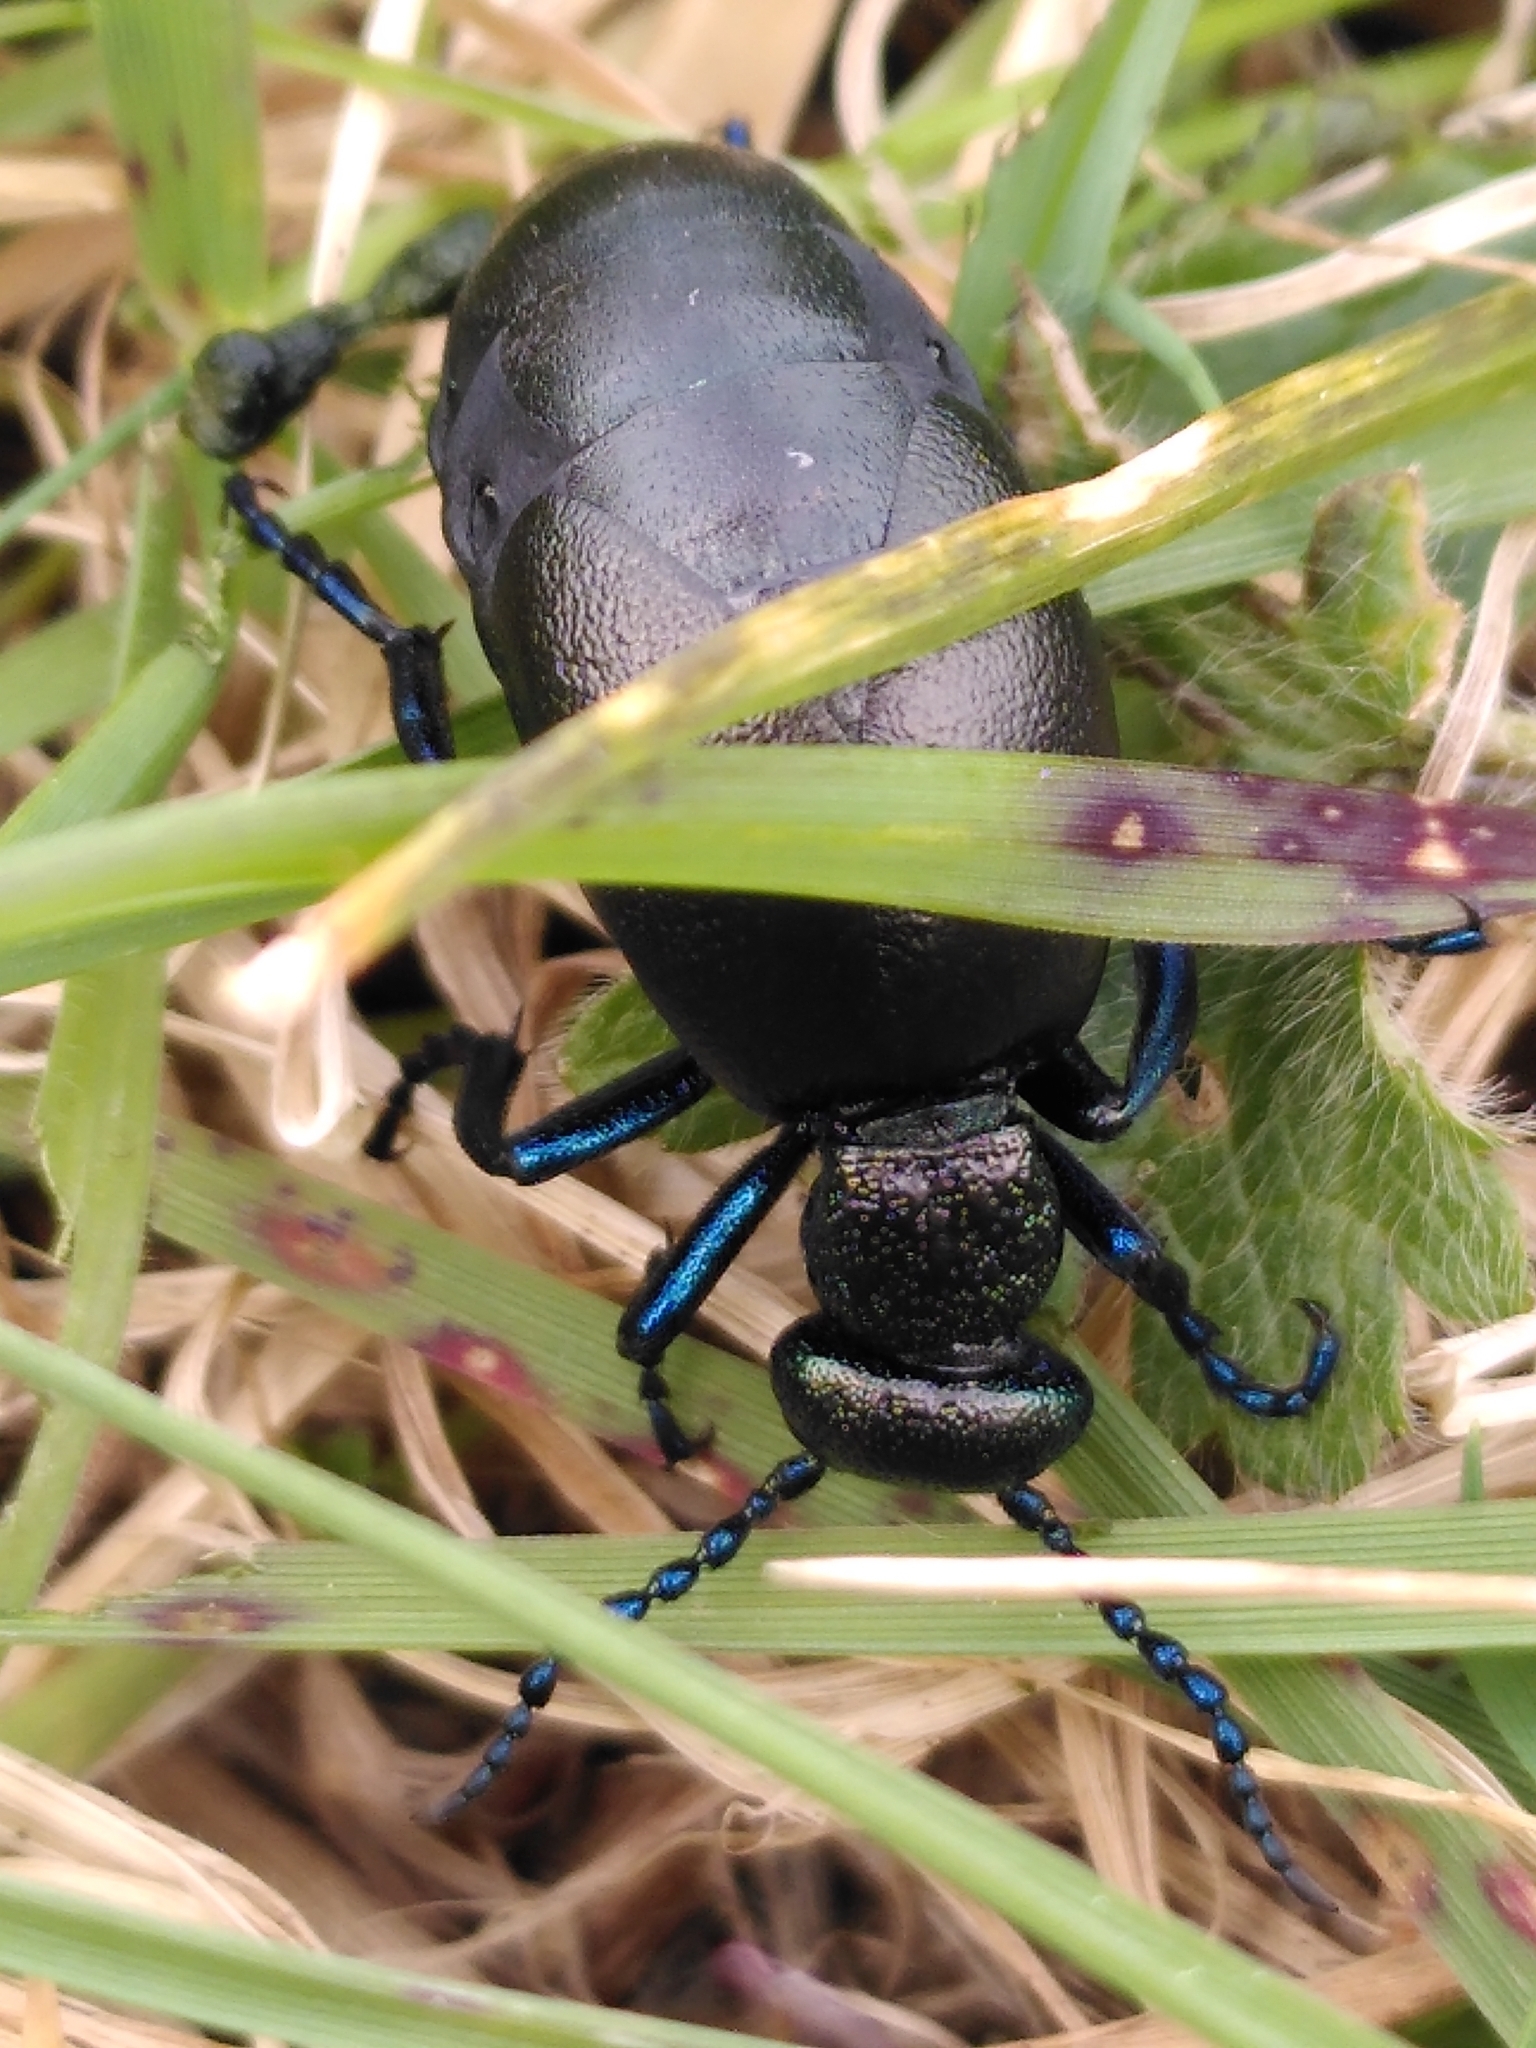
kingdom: Animalia
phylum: Arthropoda
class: Insecta
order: Coleoptera
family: Meloidae
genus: Meloe
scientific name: Meloe proscarabaeus
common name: Black oil-beetle
